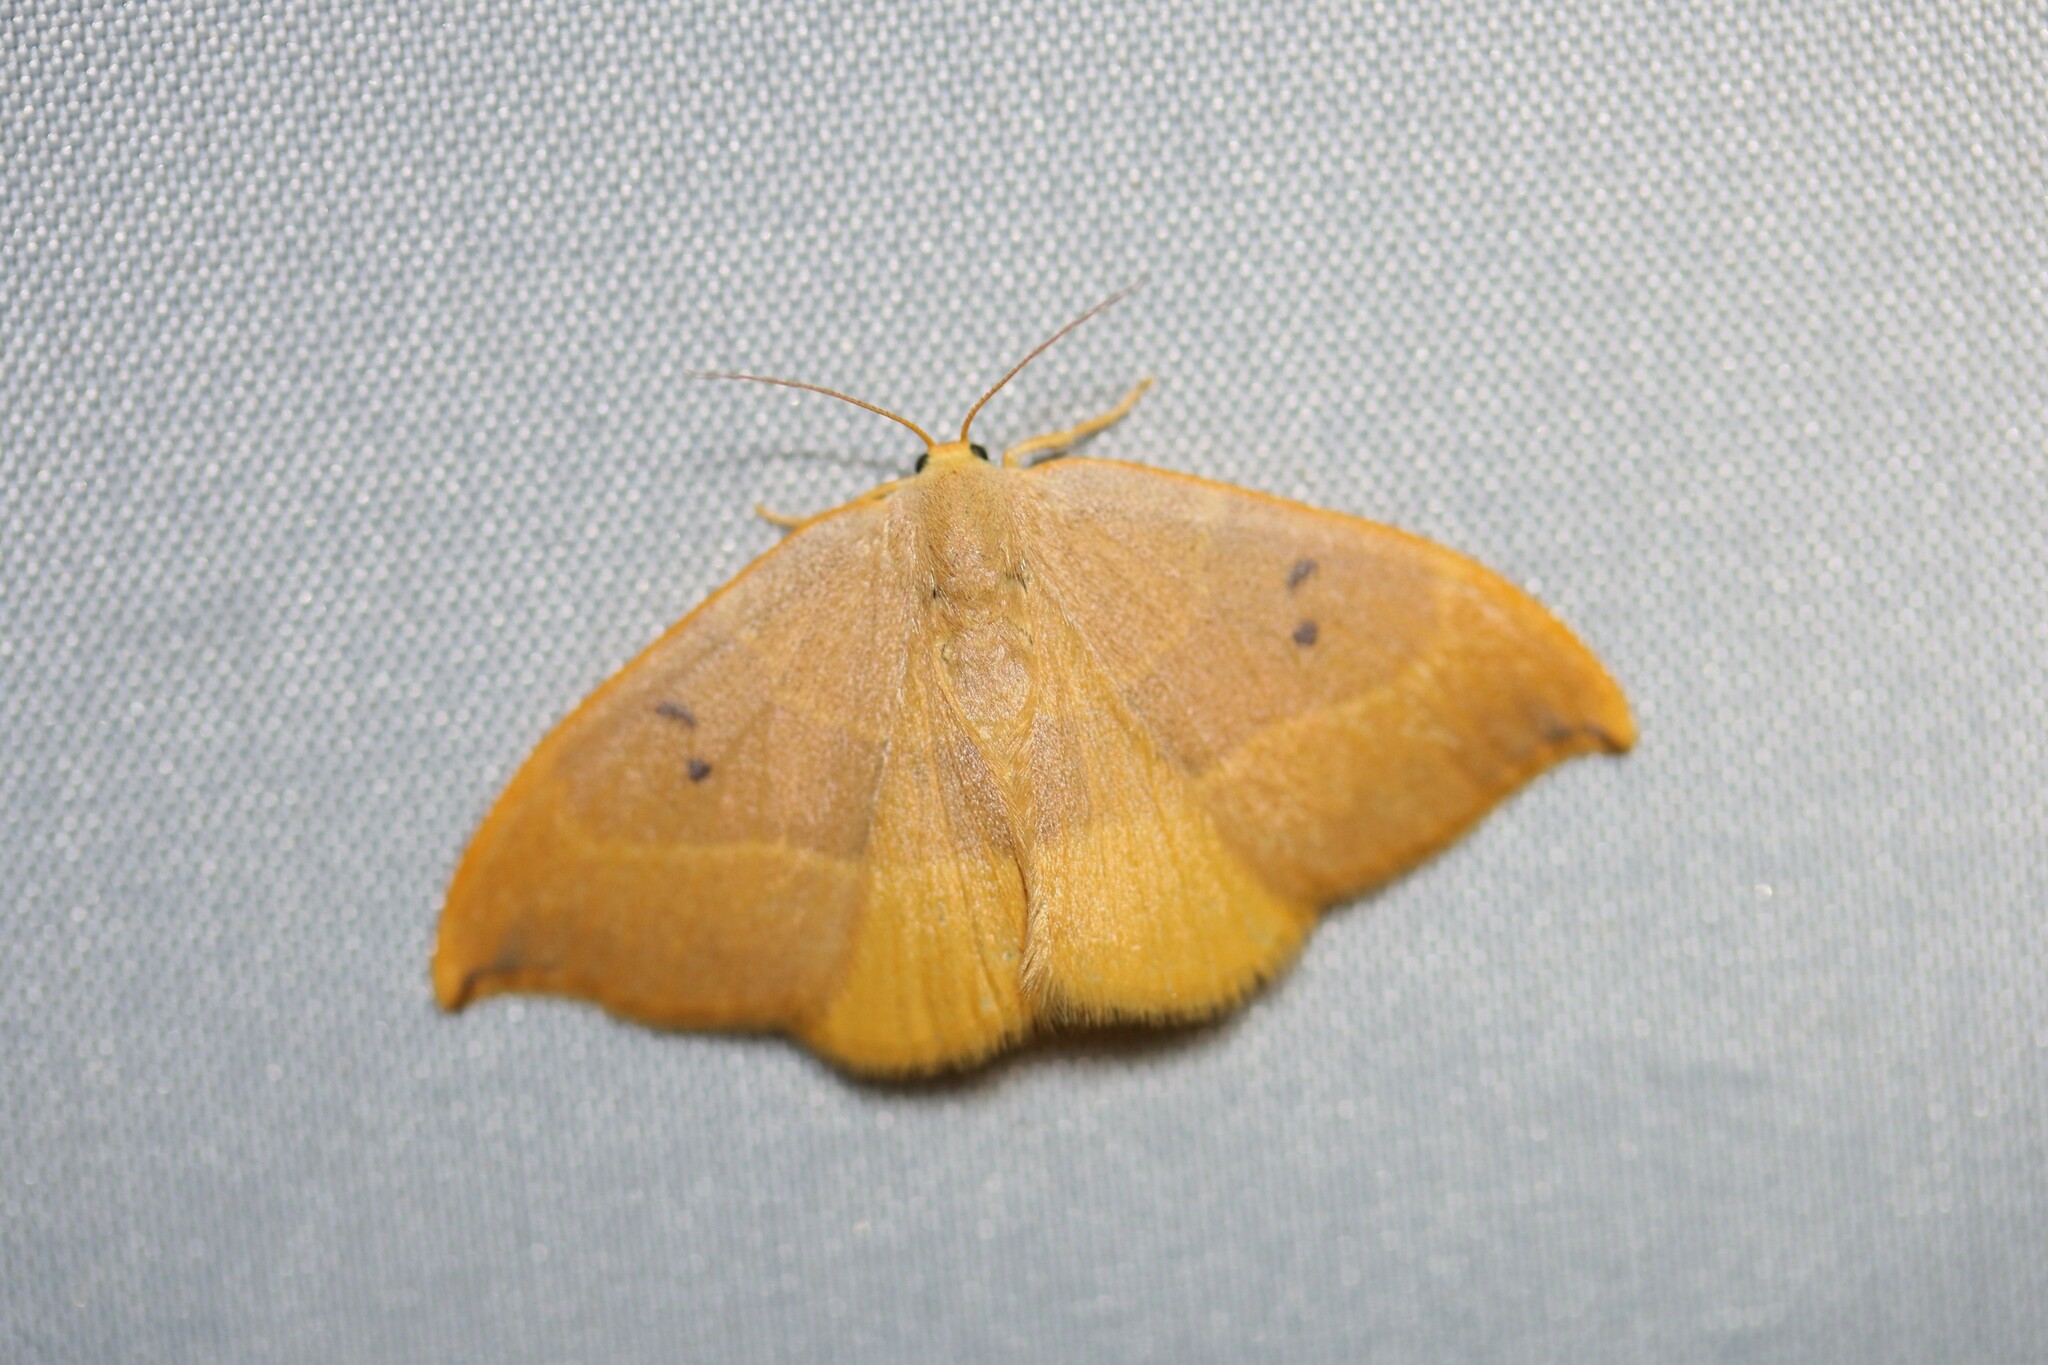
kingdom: Animalia
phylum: Arthropoda
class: Insecta
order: Lepidoptera
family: Drepanidae
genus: Watsonalla
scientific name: Watsonalla binaria
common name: Oak hook-tip
